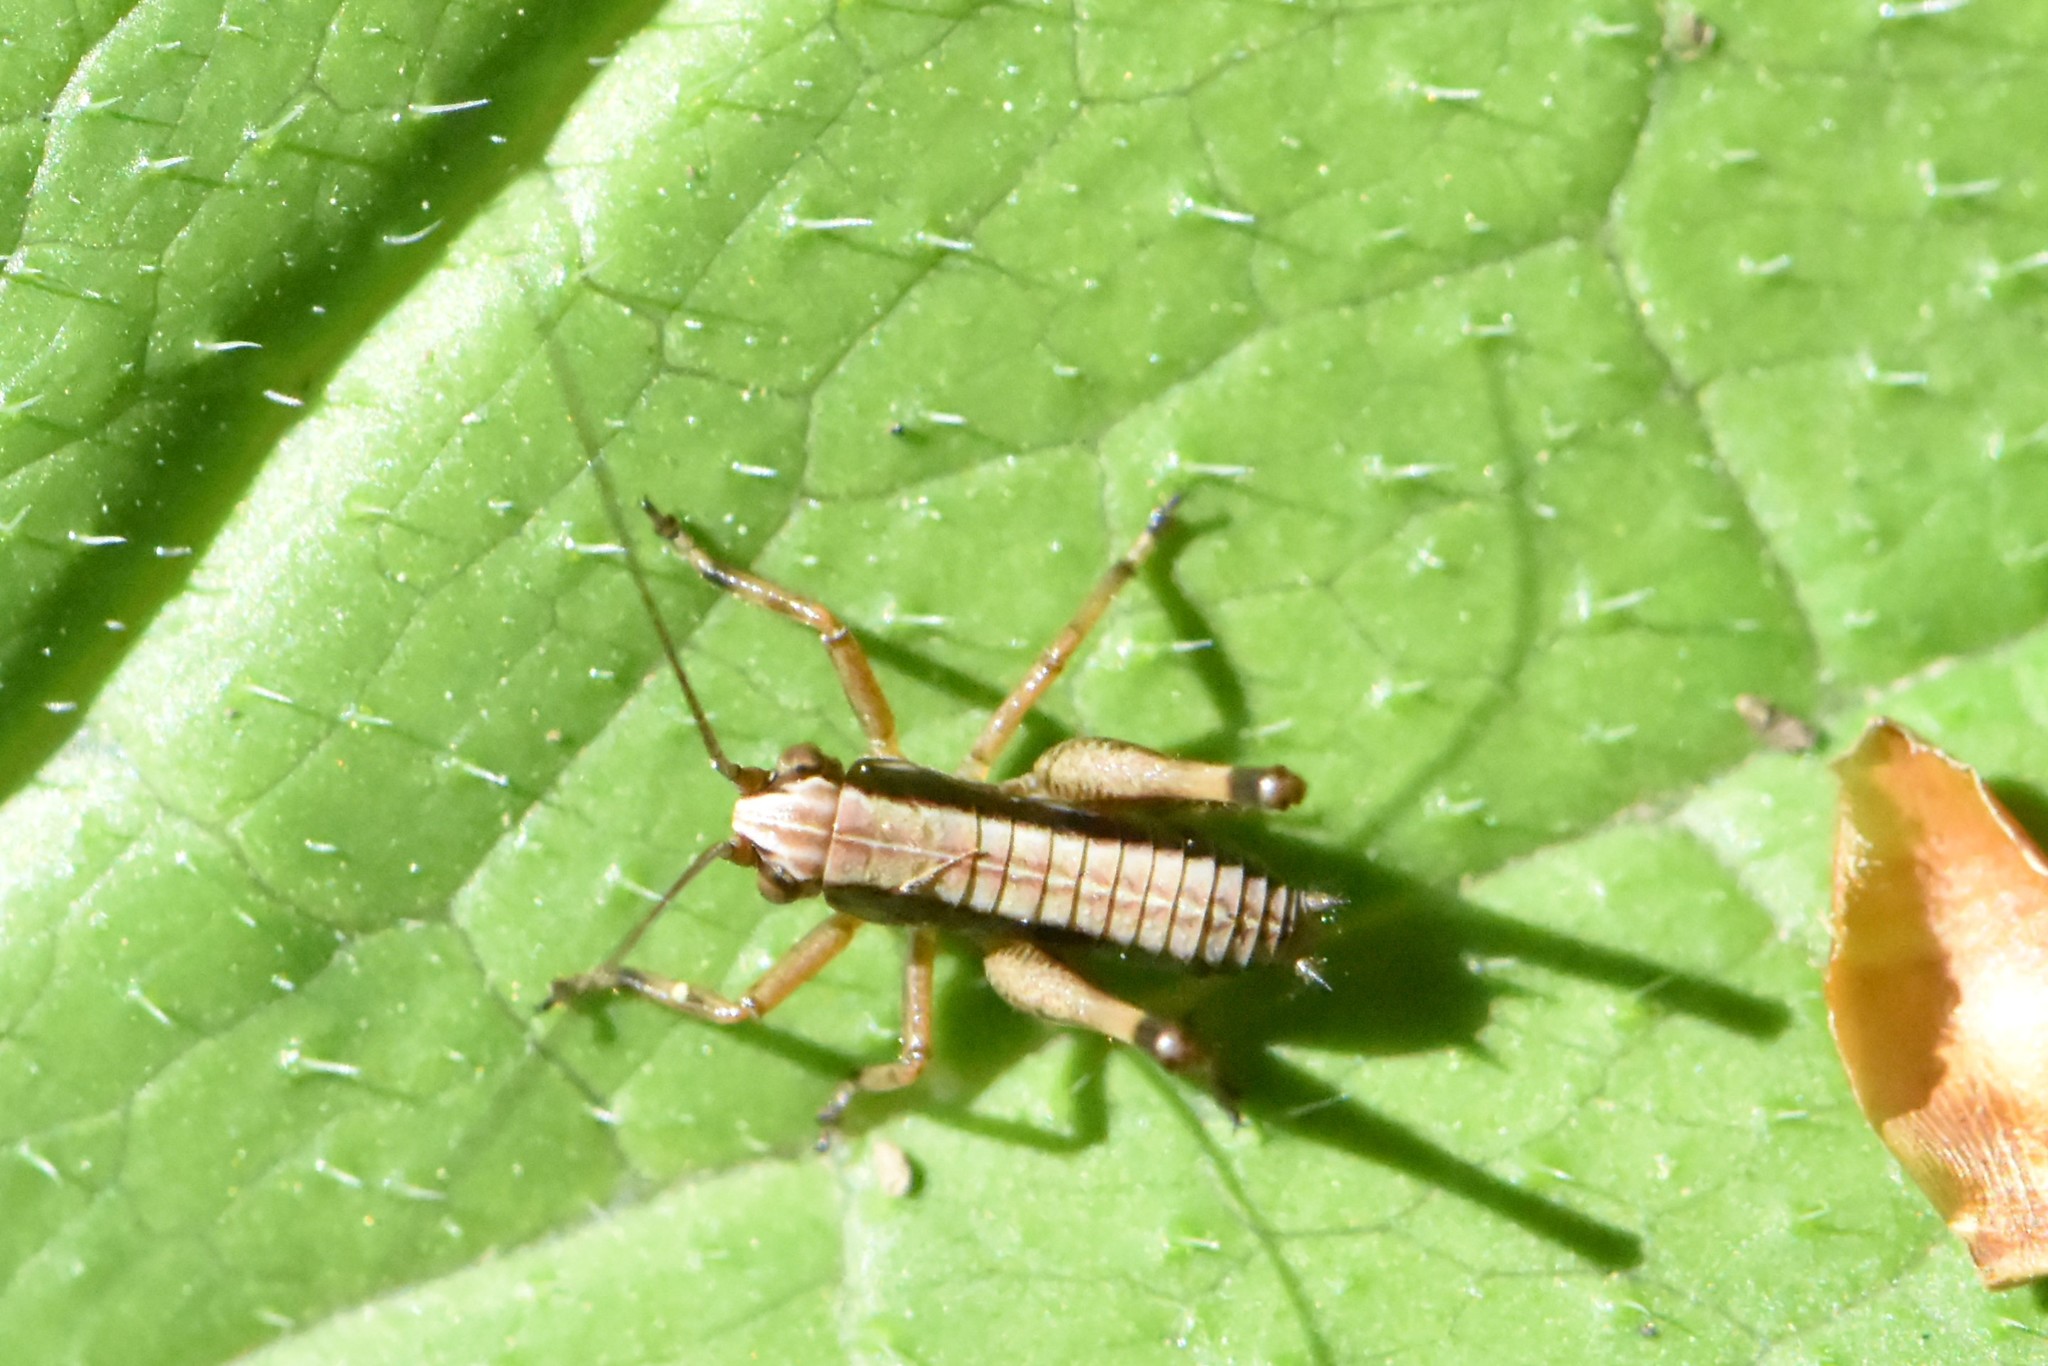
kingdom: Animalia
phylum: Arthropoda
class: Insecta
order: Orthoptera
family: Tettigoniidae
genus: Pholidoptera
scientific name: Pholidoptera griseoaptera
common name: Dark bush-cricket
